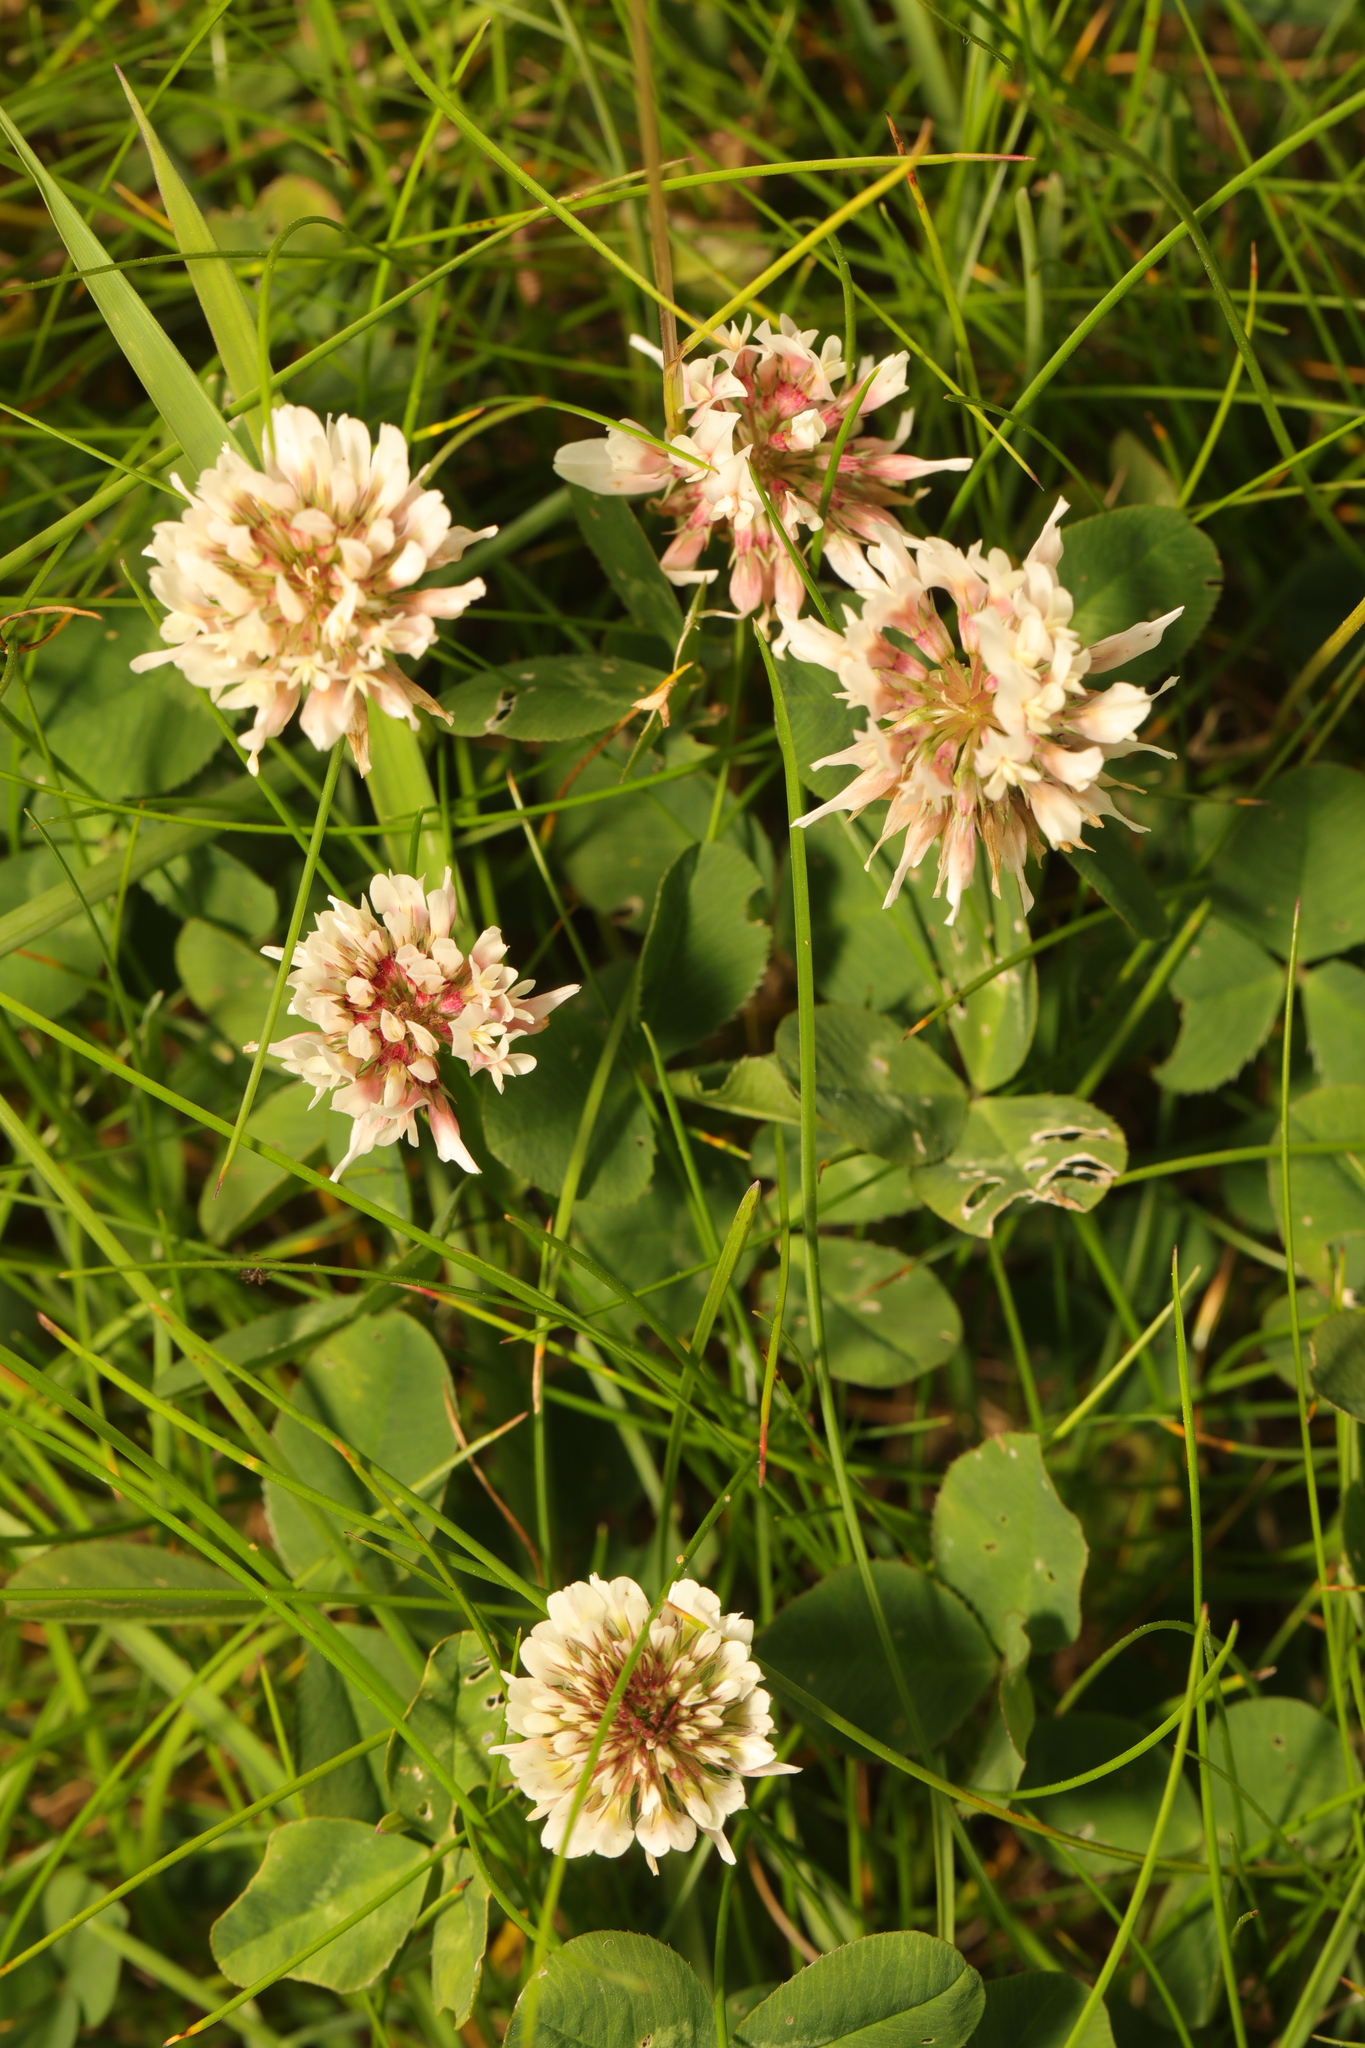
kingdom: Plantae
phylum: Tracheophyta
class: Magnoliopsida
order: Fabales
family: Fabaceae
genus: Trifolium
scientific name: Trifolium repens
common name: White clover
